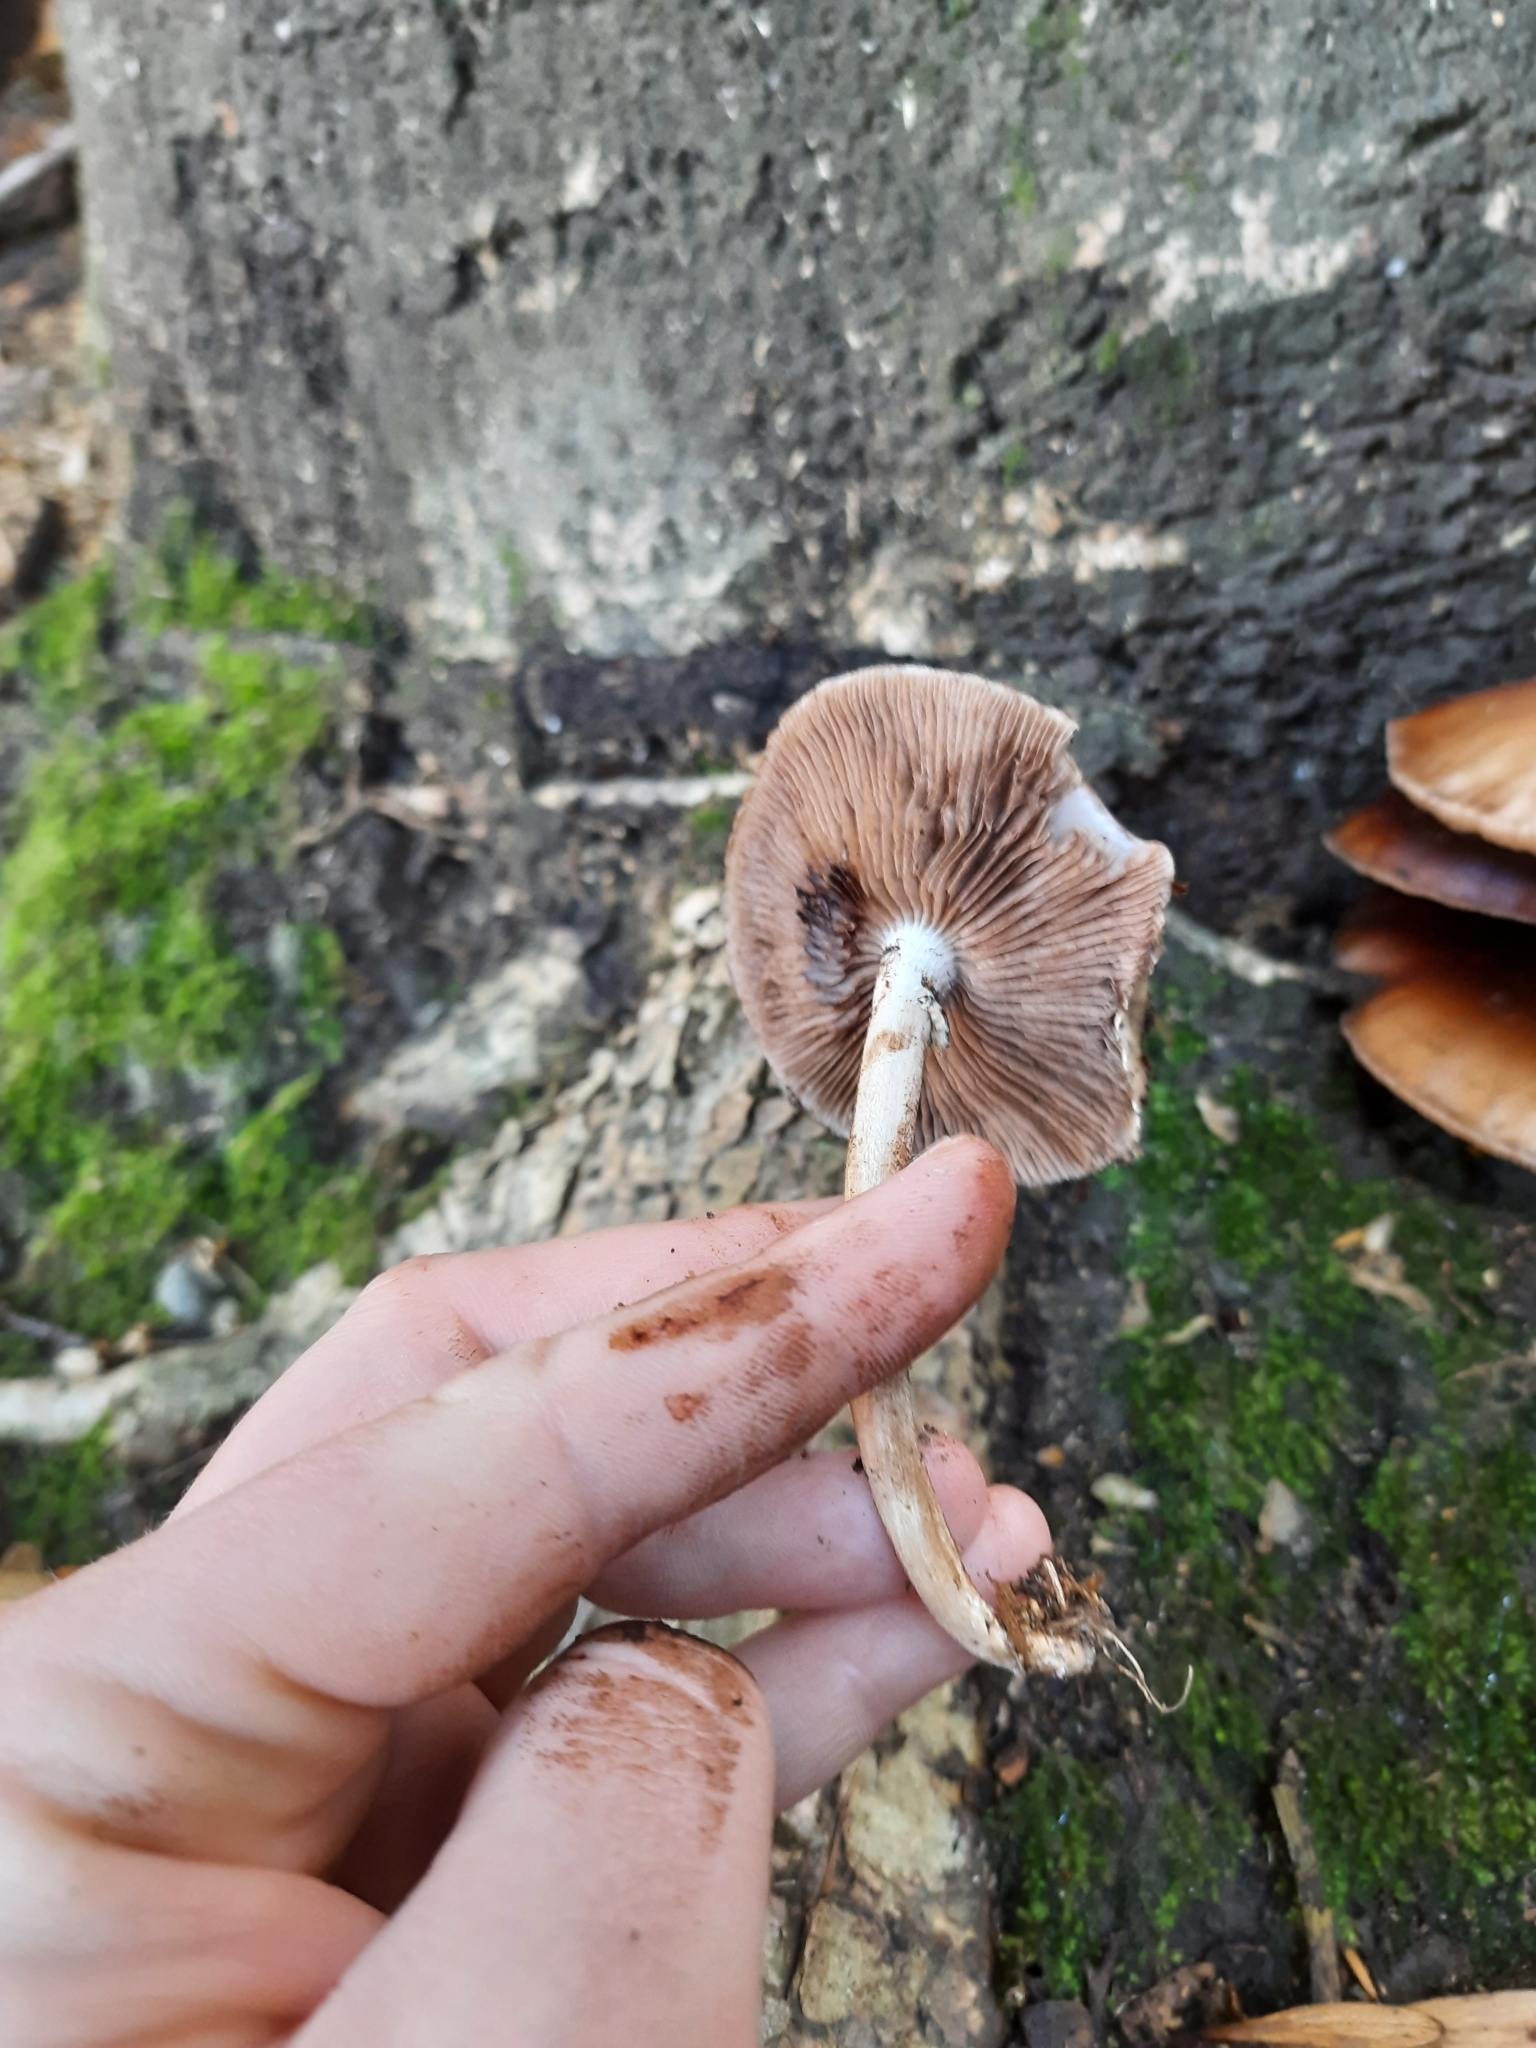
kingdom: Fungi
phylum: Basidiomycota
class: Agaricomycetes
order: Agaricales
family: Tubariaceae
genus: Cyclocybe
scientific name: Cyclocybe parasitica
